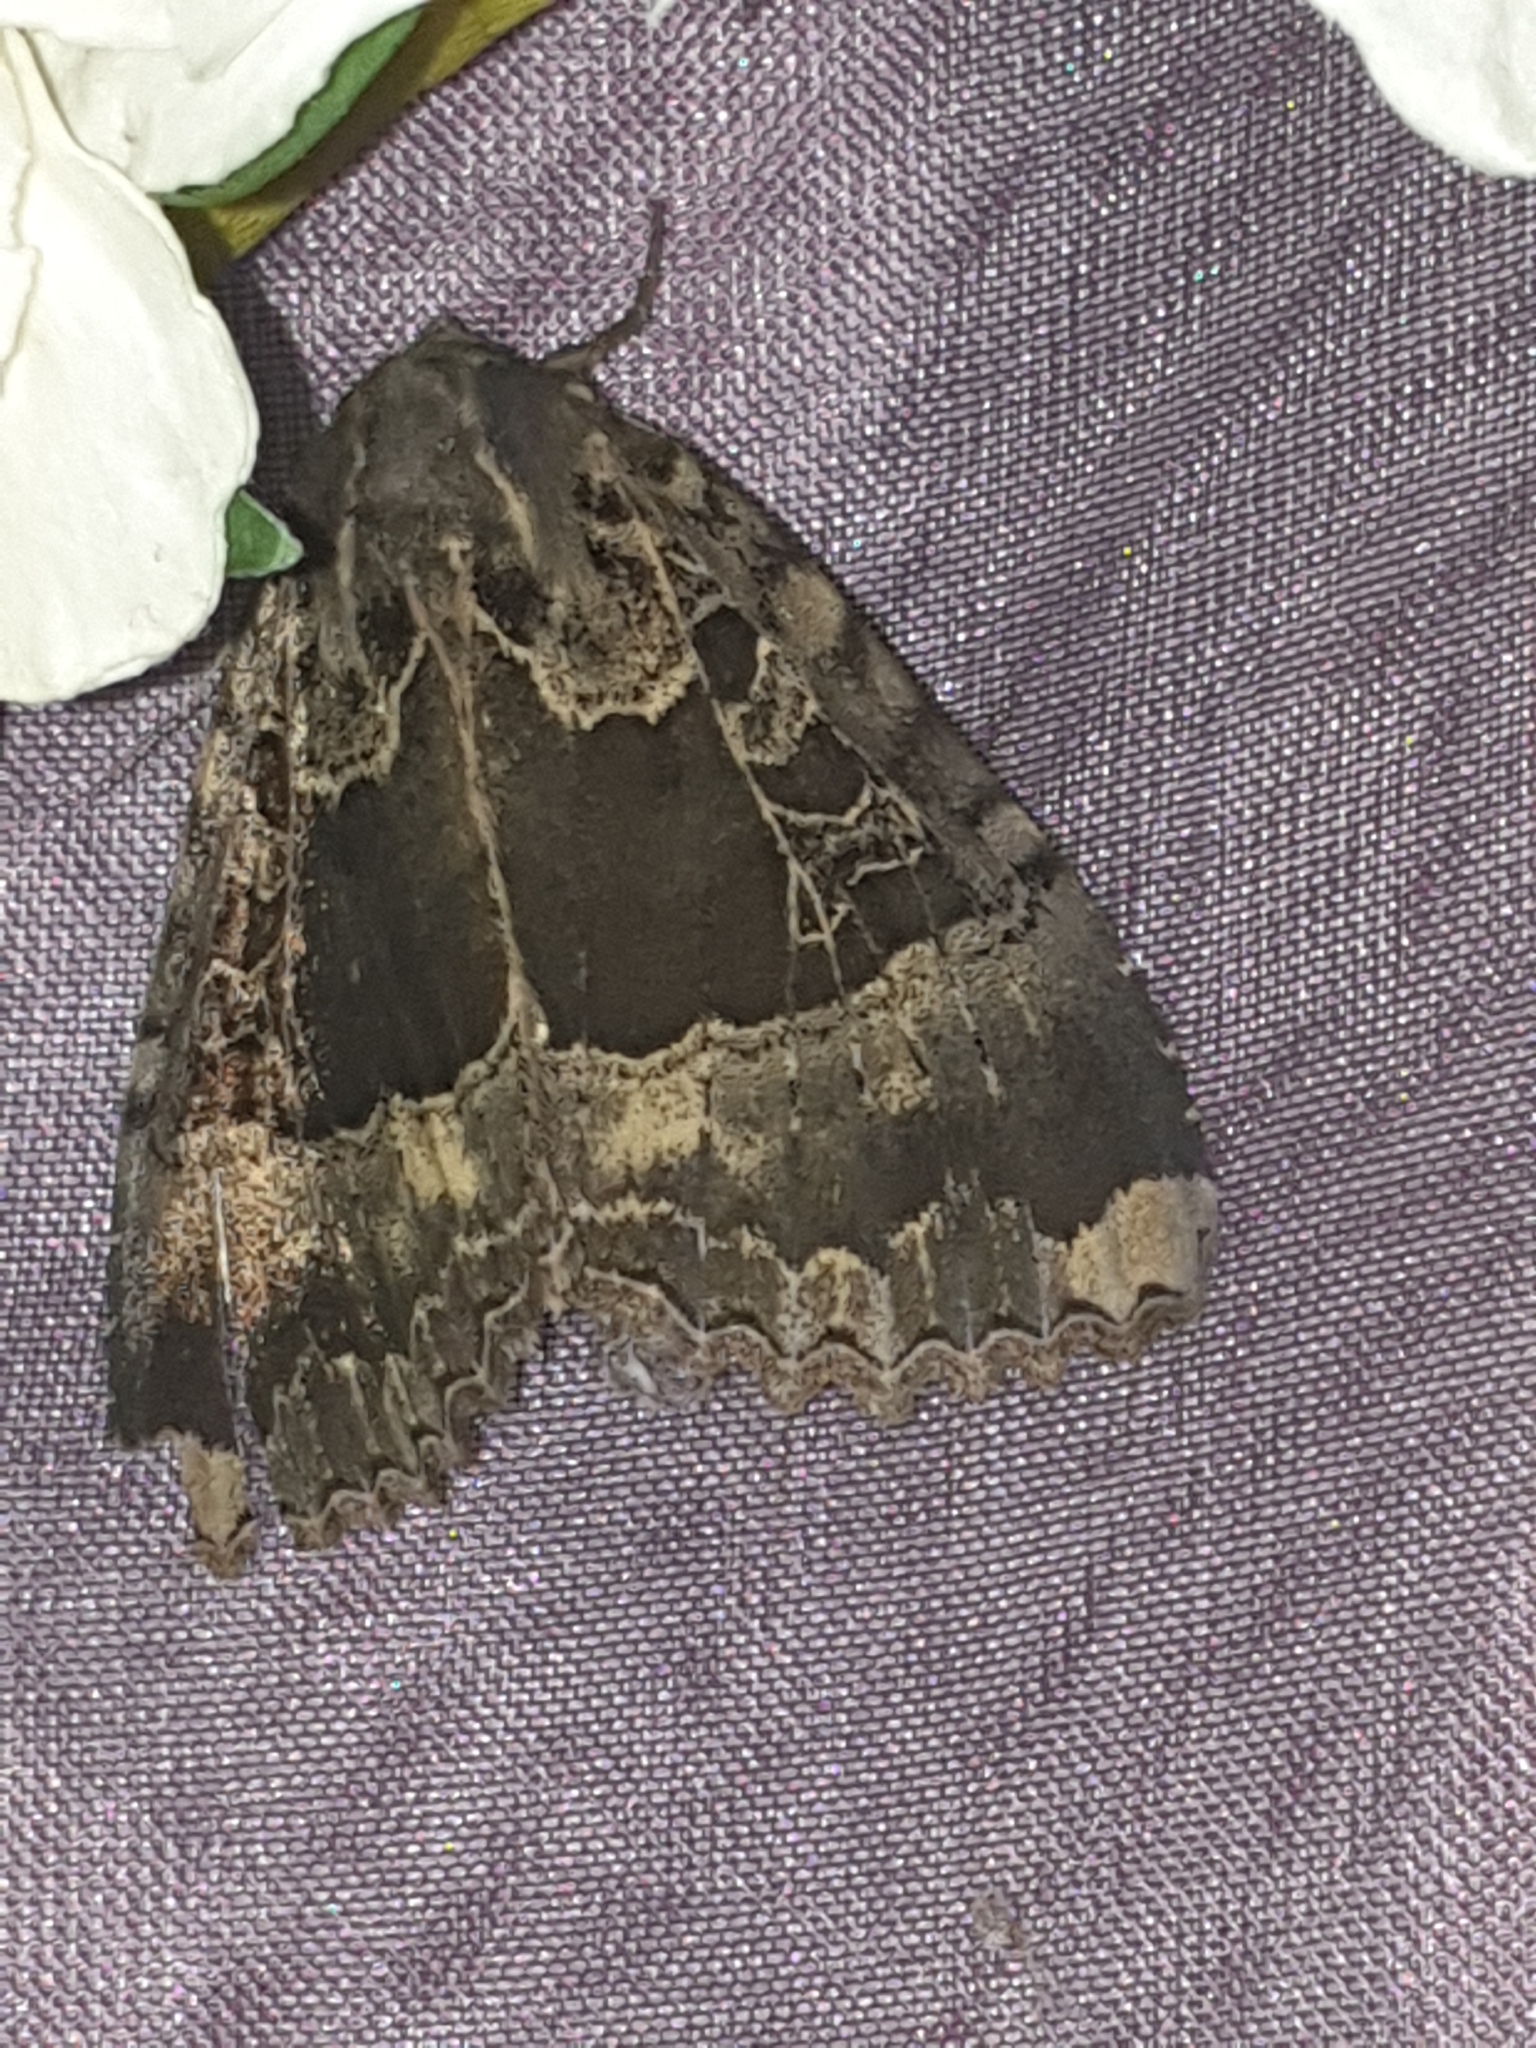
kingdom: Animalia
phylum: Arthropoda
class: Insecta
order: Lepidoptera
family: Noctuidae
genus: Mormo
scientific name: Mormo maura
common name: Old lady
